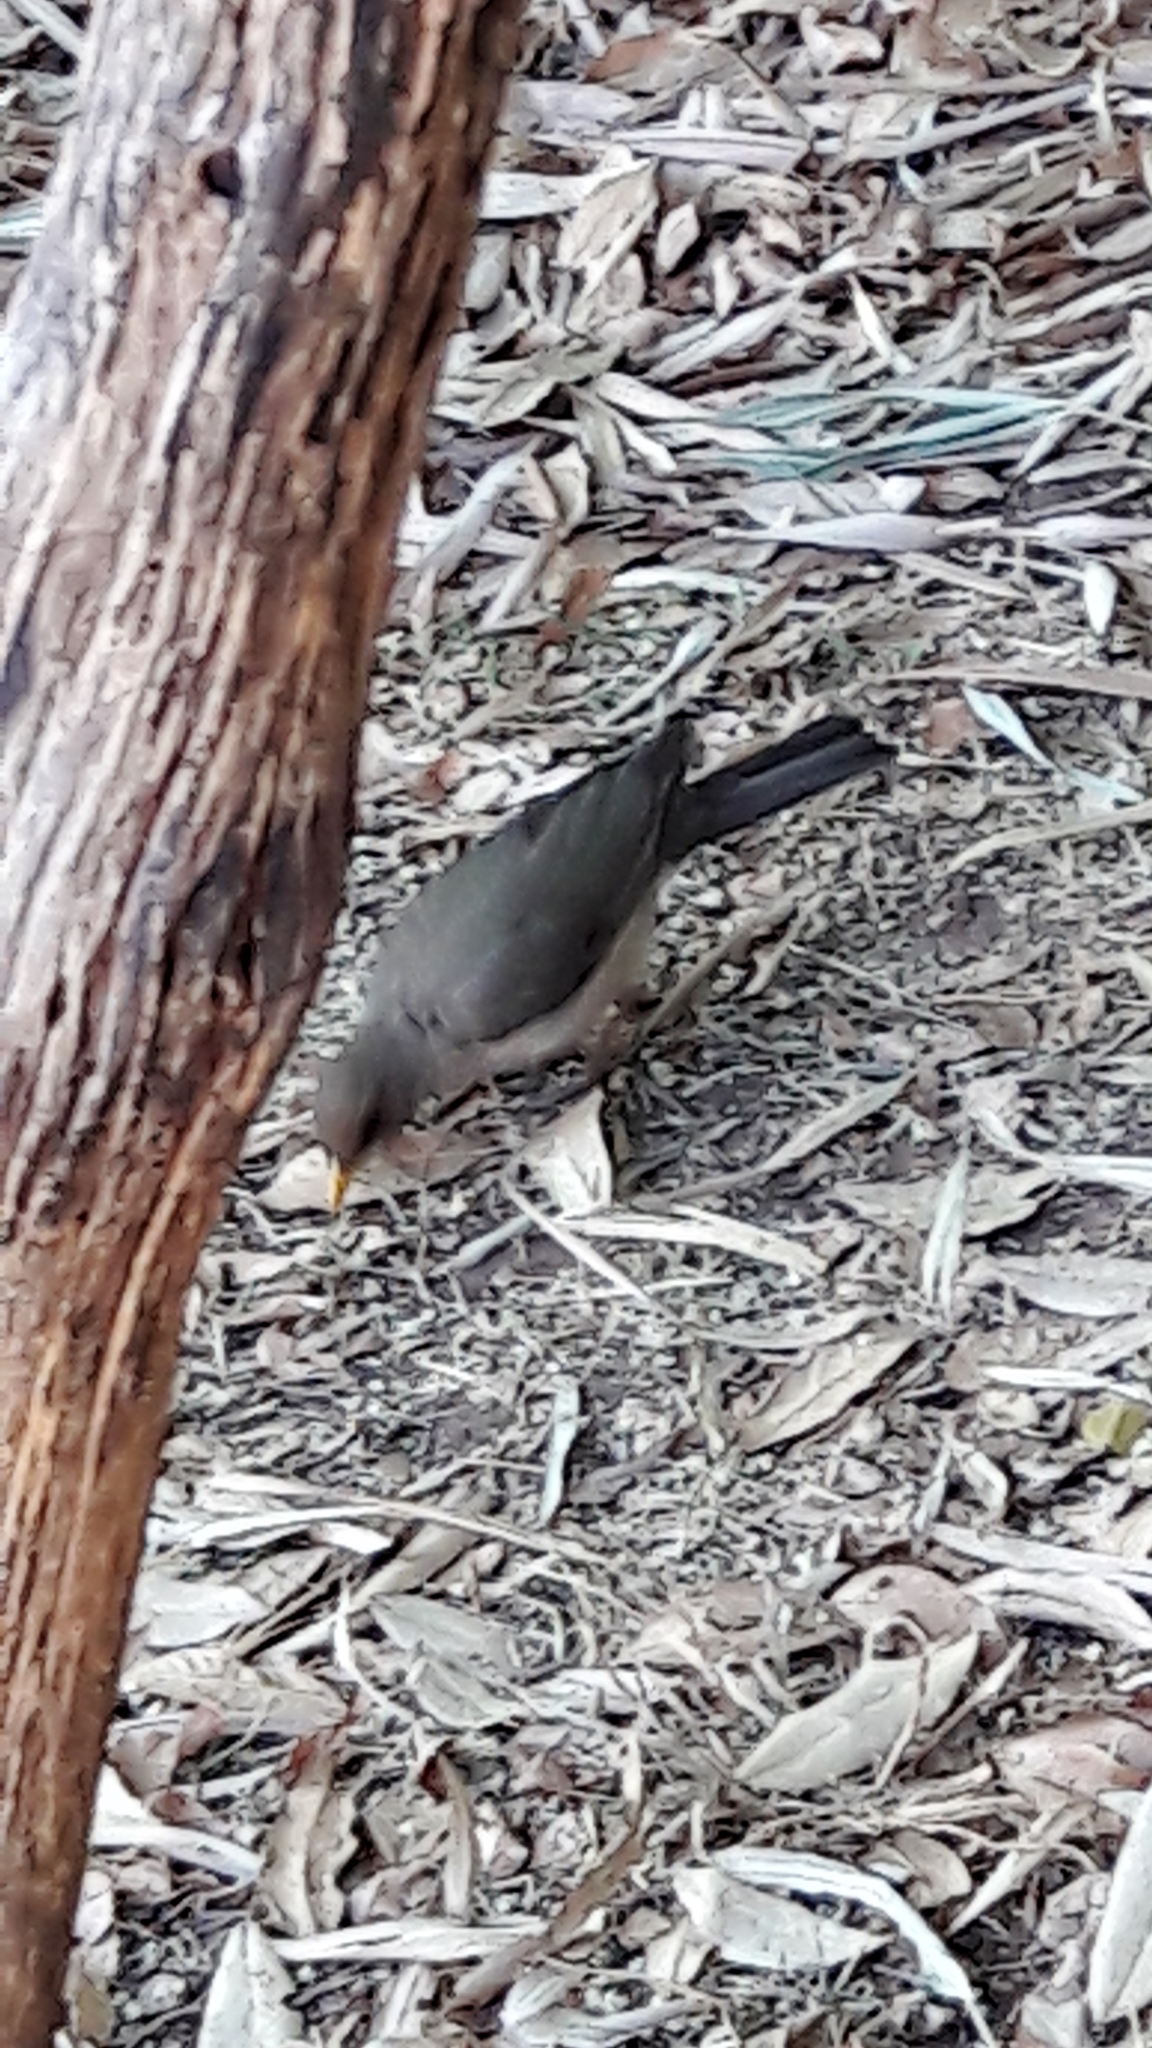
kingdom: Animalia
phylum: Chordata
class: Aves
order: Passeriformes
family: Turdidae
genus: Turdus
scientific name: Turdus amaurochalinus
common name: Creamy-bellied thrush
